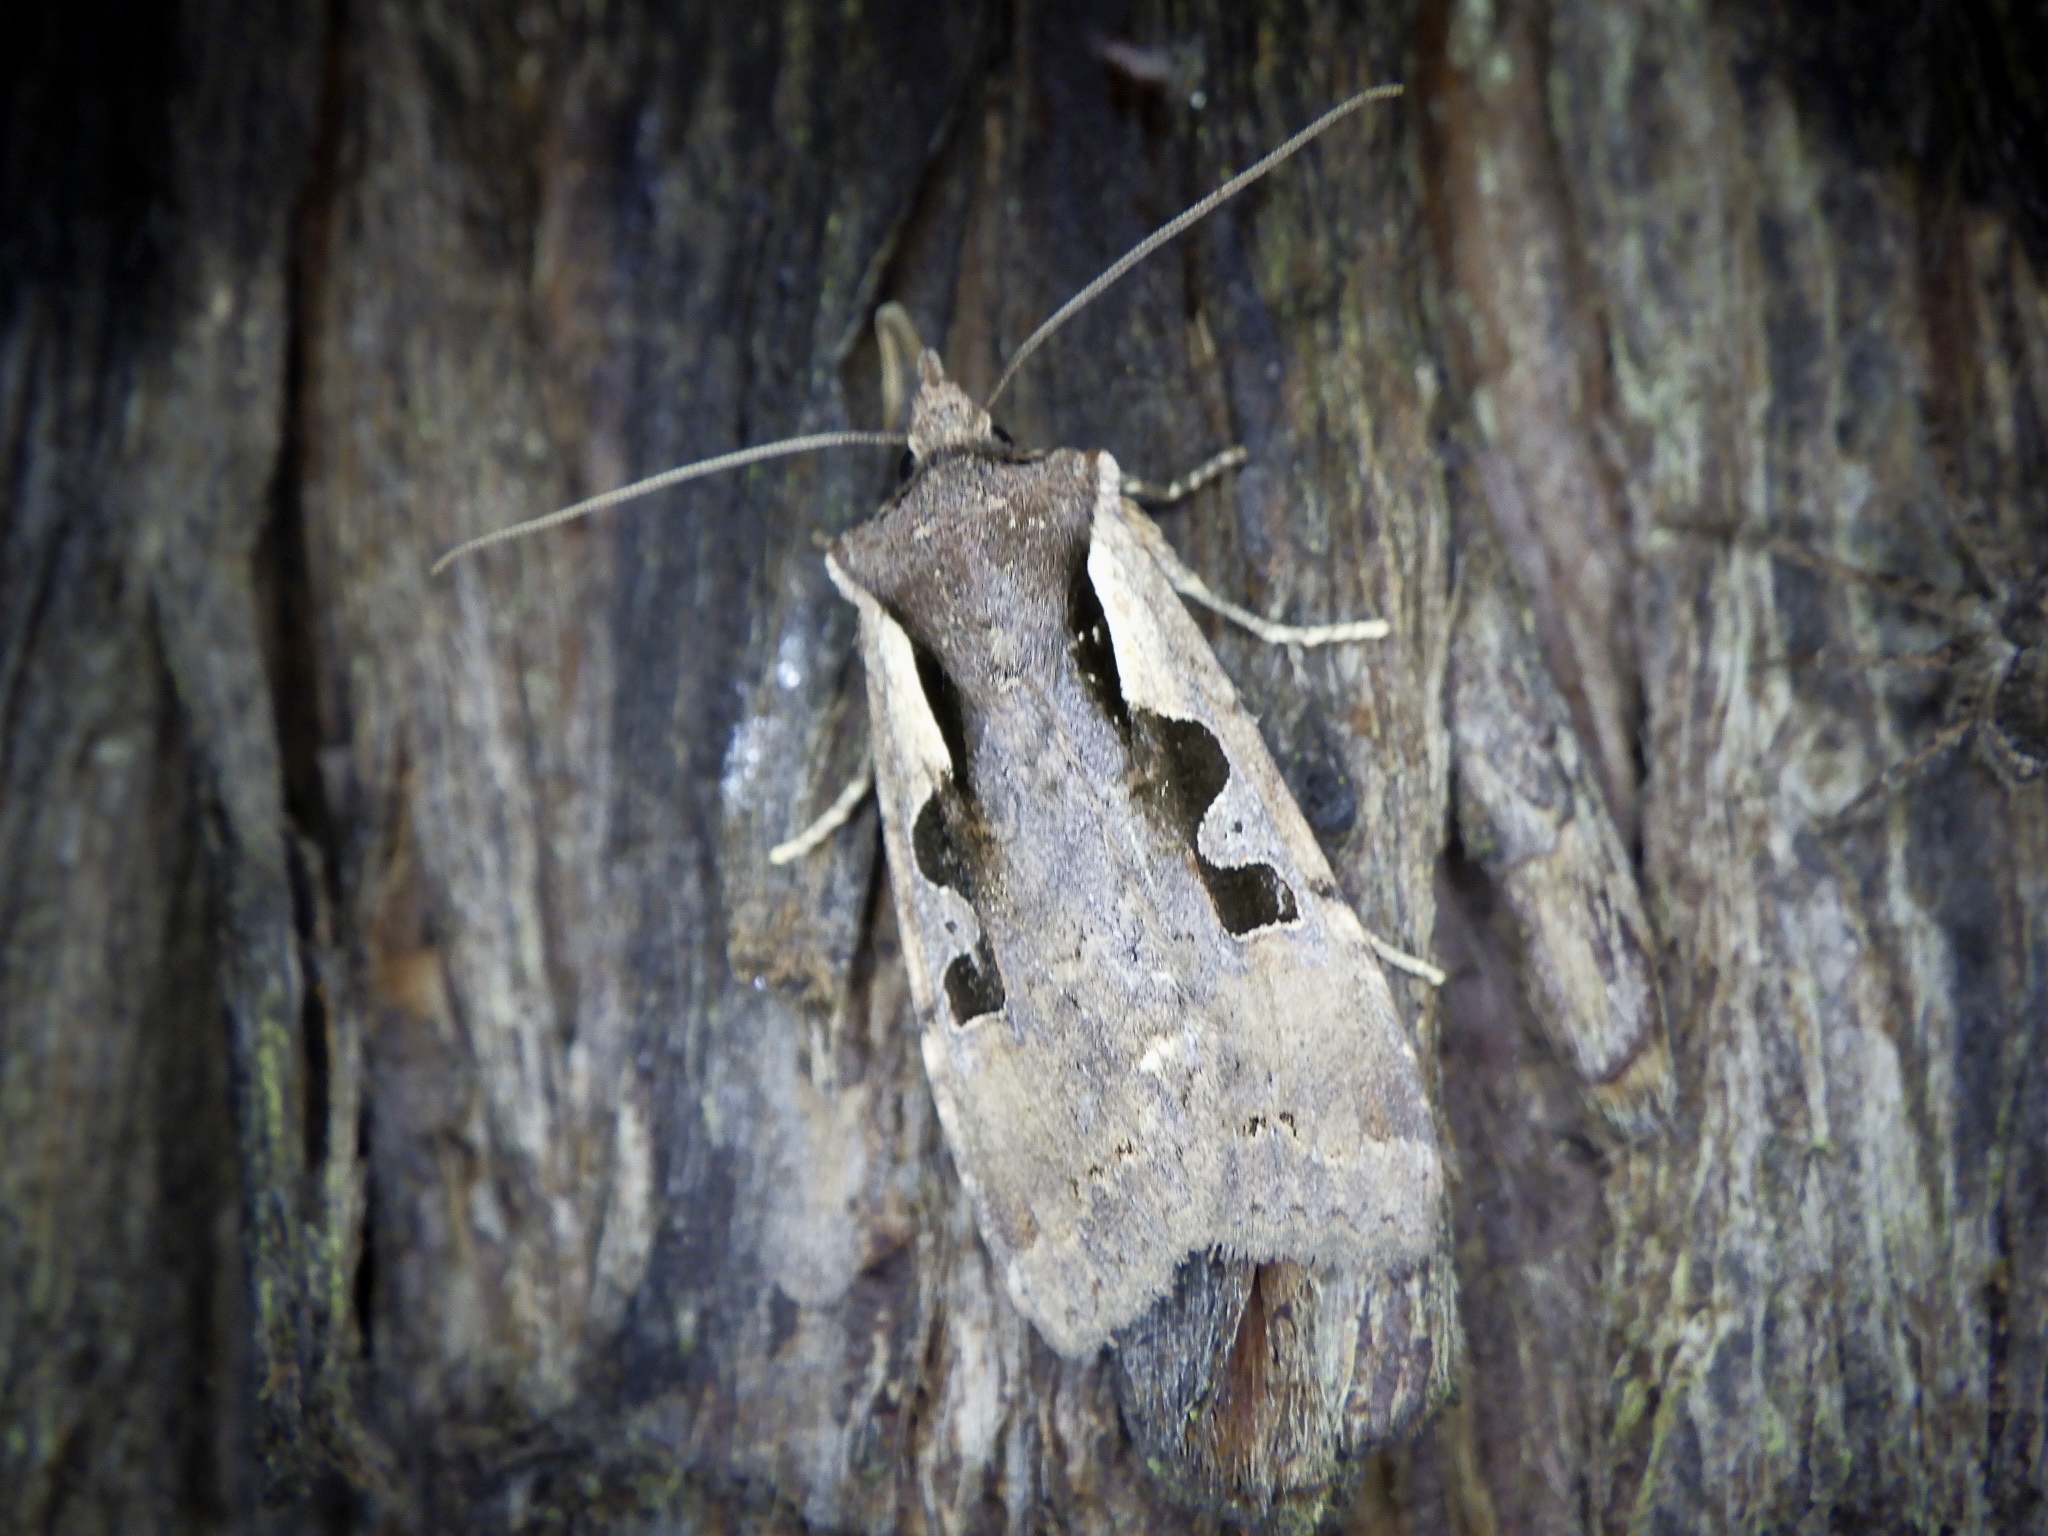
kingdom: Animalia
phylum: Arthropoda
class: Insecta
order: Lepidoptera
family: Noctuidae
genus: Sugitania
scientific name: Sugitania lepida
